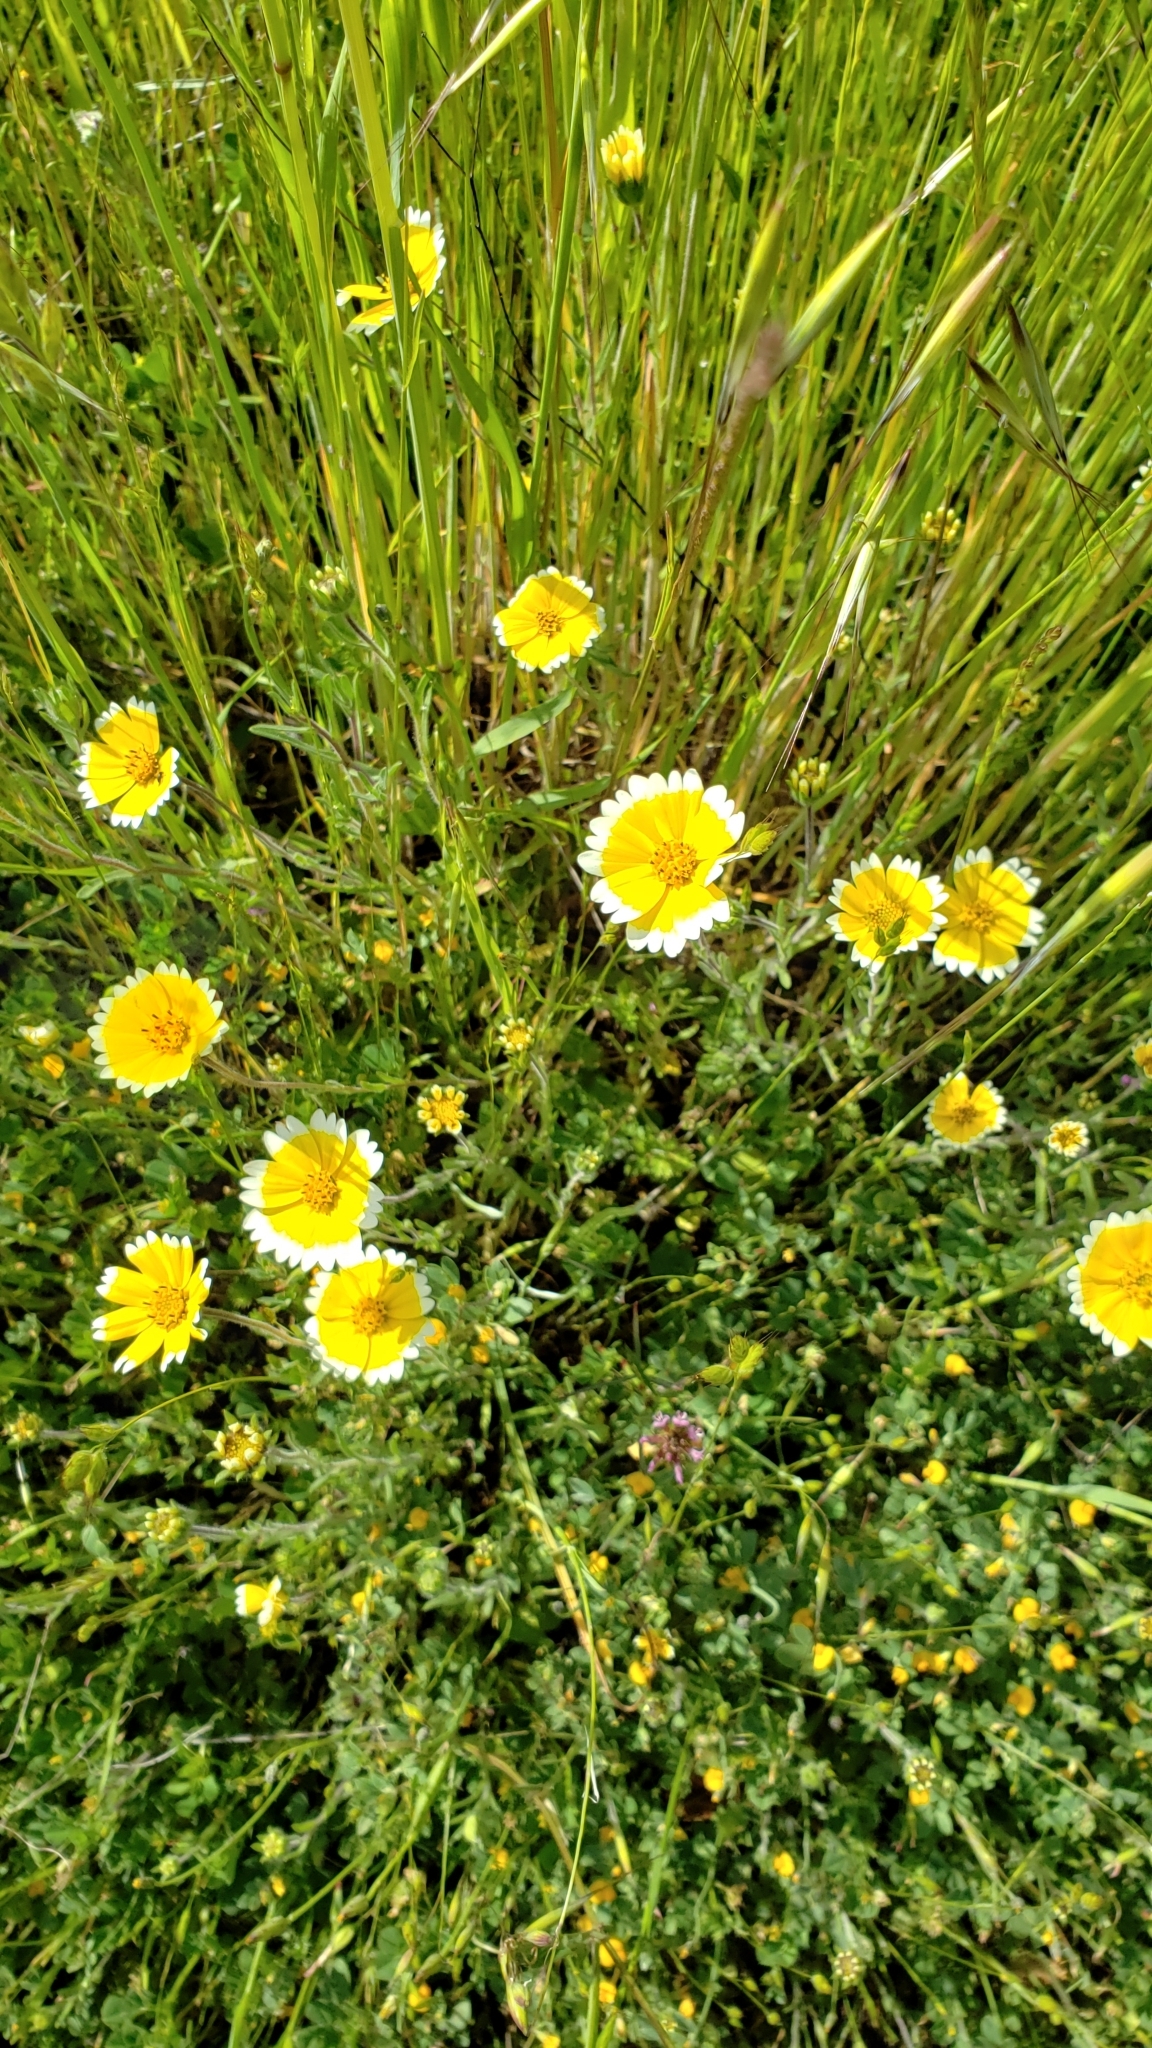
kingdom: Plantae
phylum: Tracheophyta
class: Magnoliopsida
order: Asterales
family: Asteraceae
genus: Layia
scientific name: Layia platyglossa
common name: Tidy-tips
